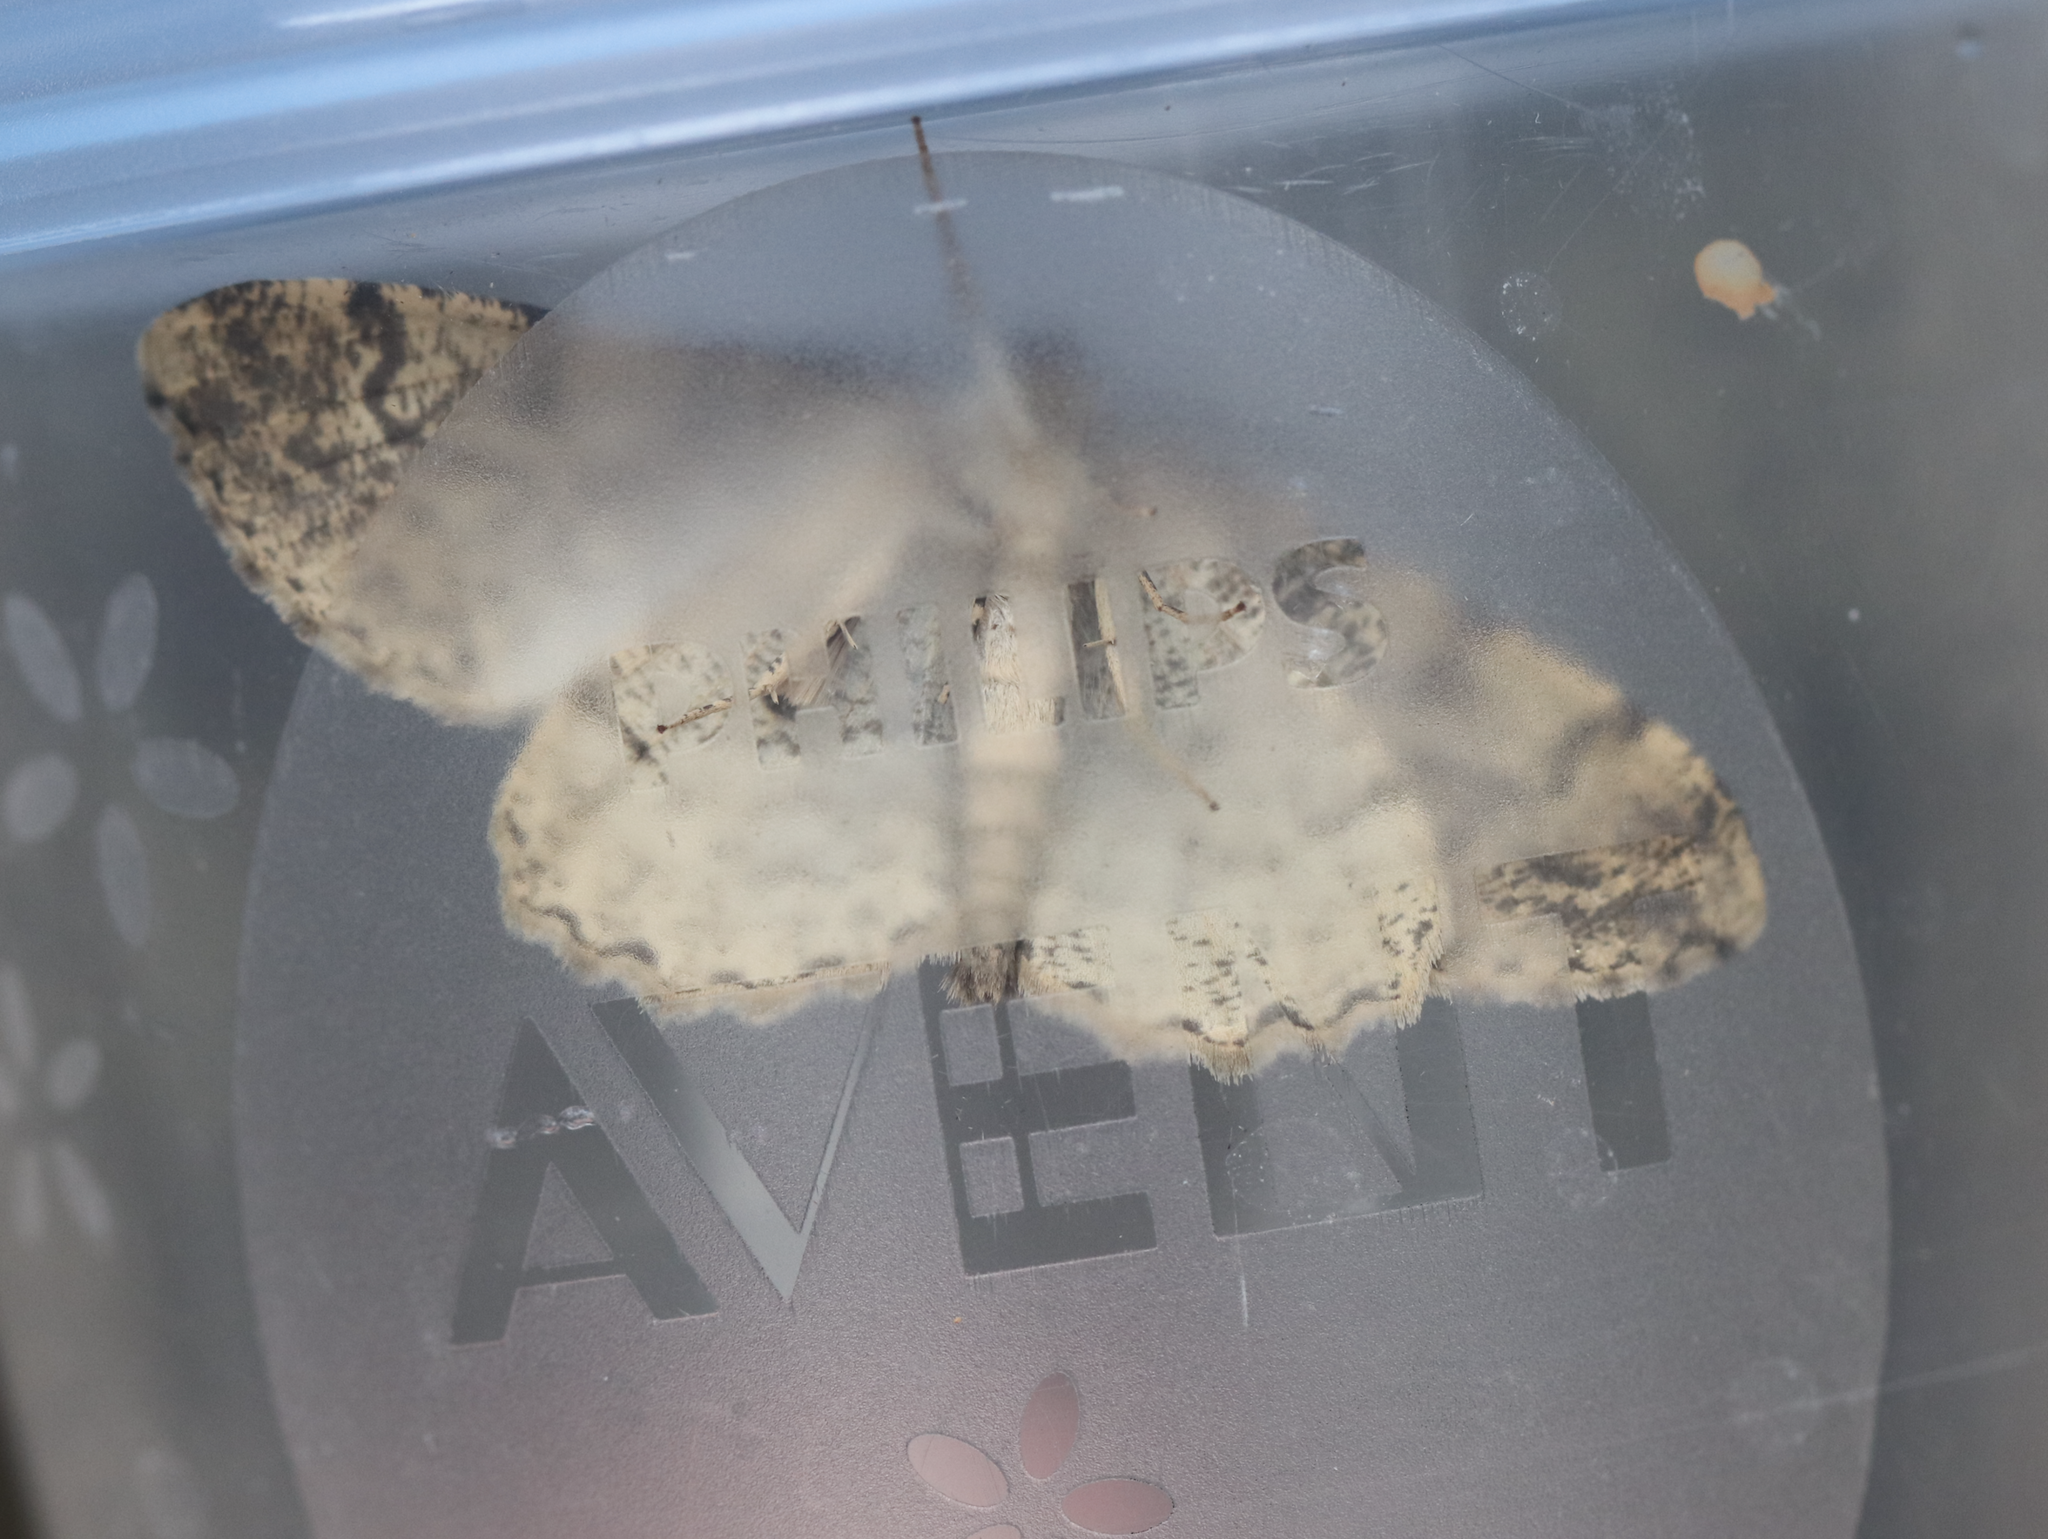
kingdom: Animalia
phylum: Arthropoda
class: Insecta
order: Lepidoptera
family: Geometridae
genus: Alcis
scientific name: Alcis repandata
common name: Mottled beauty
